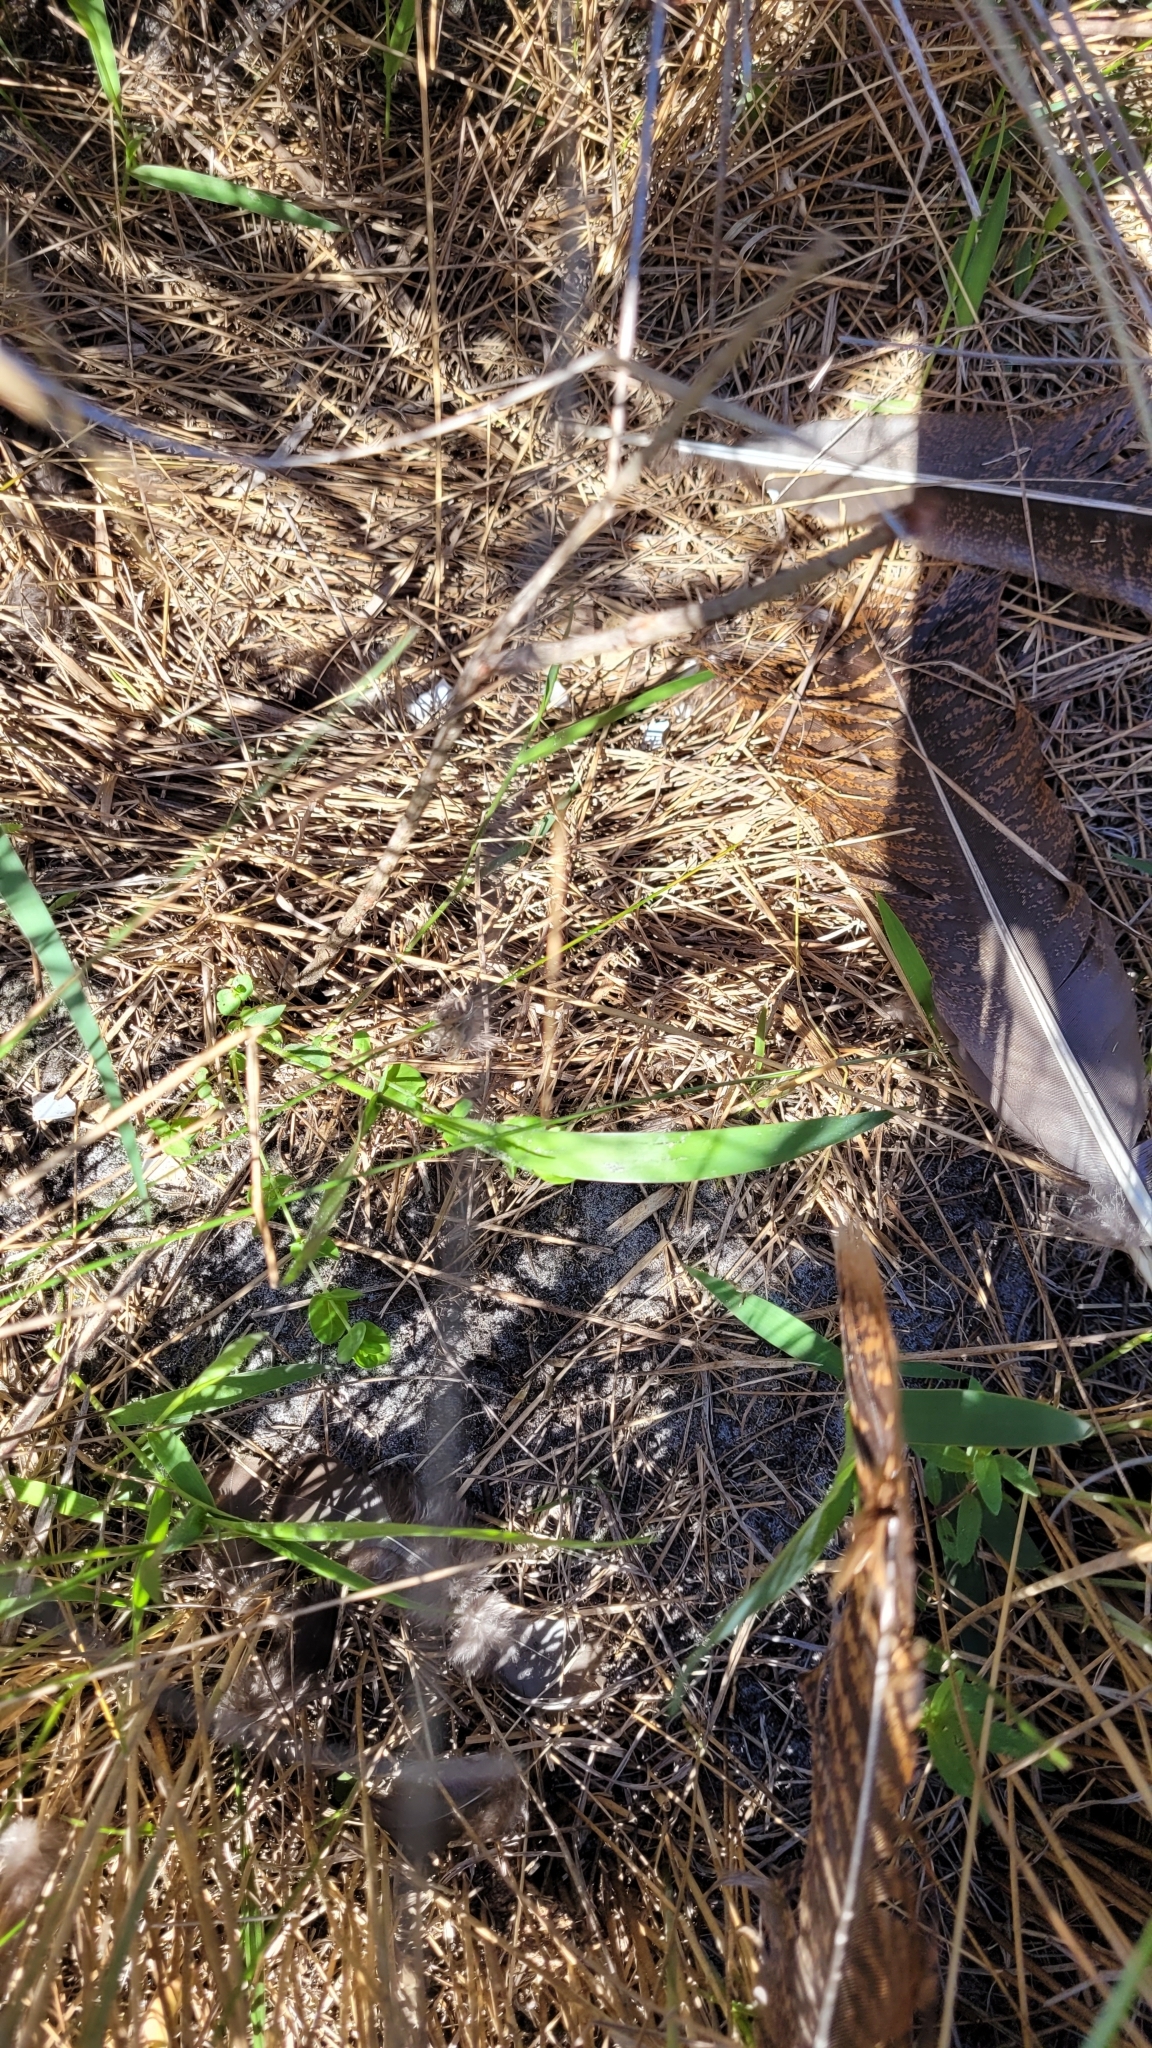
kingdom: Animalia
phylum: Chordata
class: Aves
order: Galliformes
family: Phasianidae
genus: Meleagris
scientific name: Meleagris gallopavo
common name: Wild turkey
